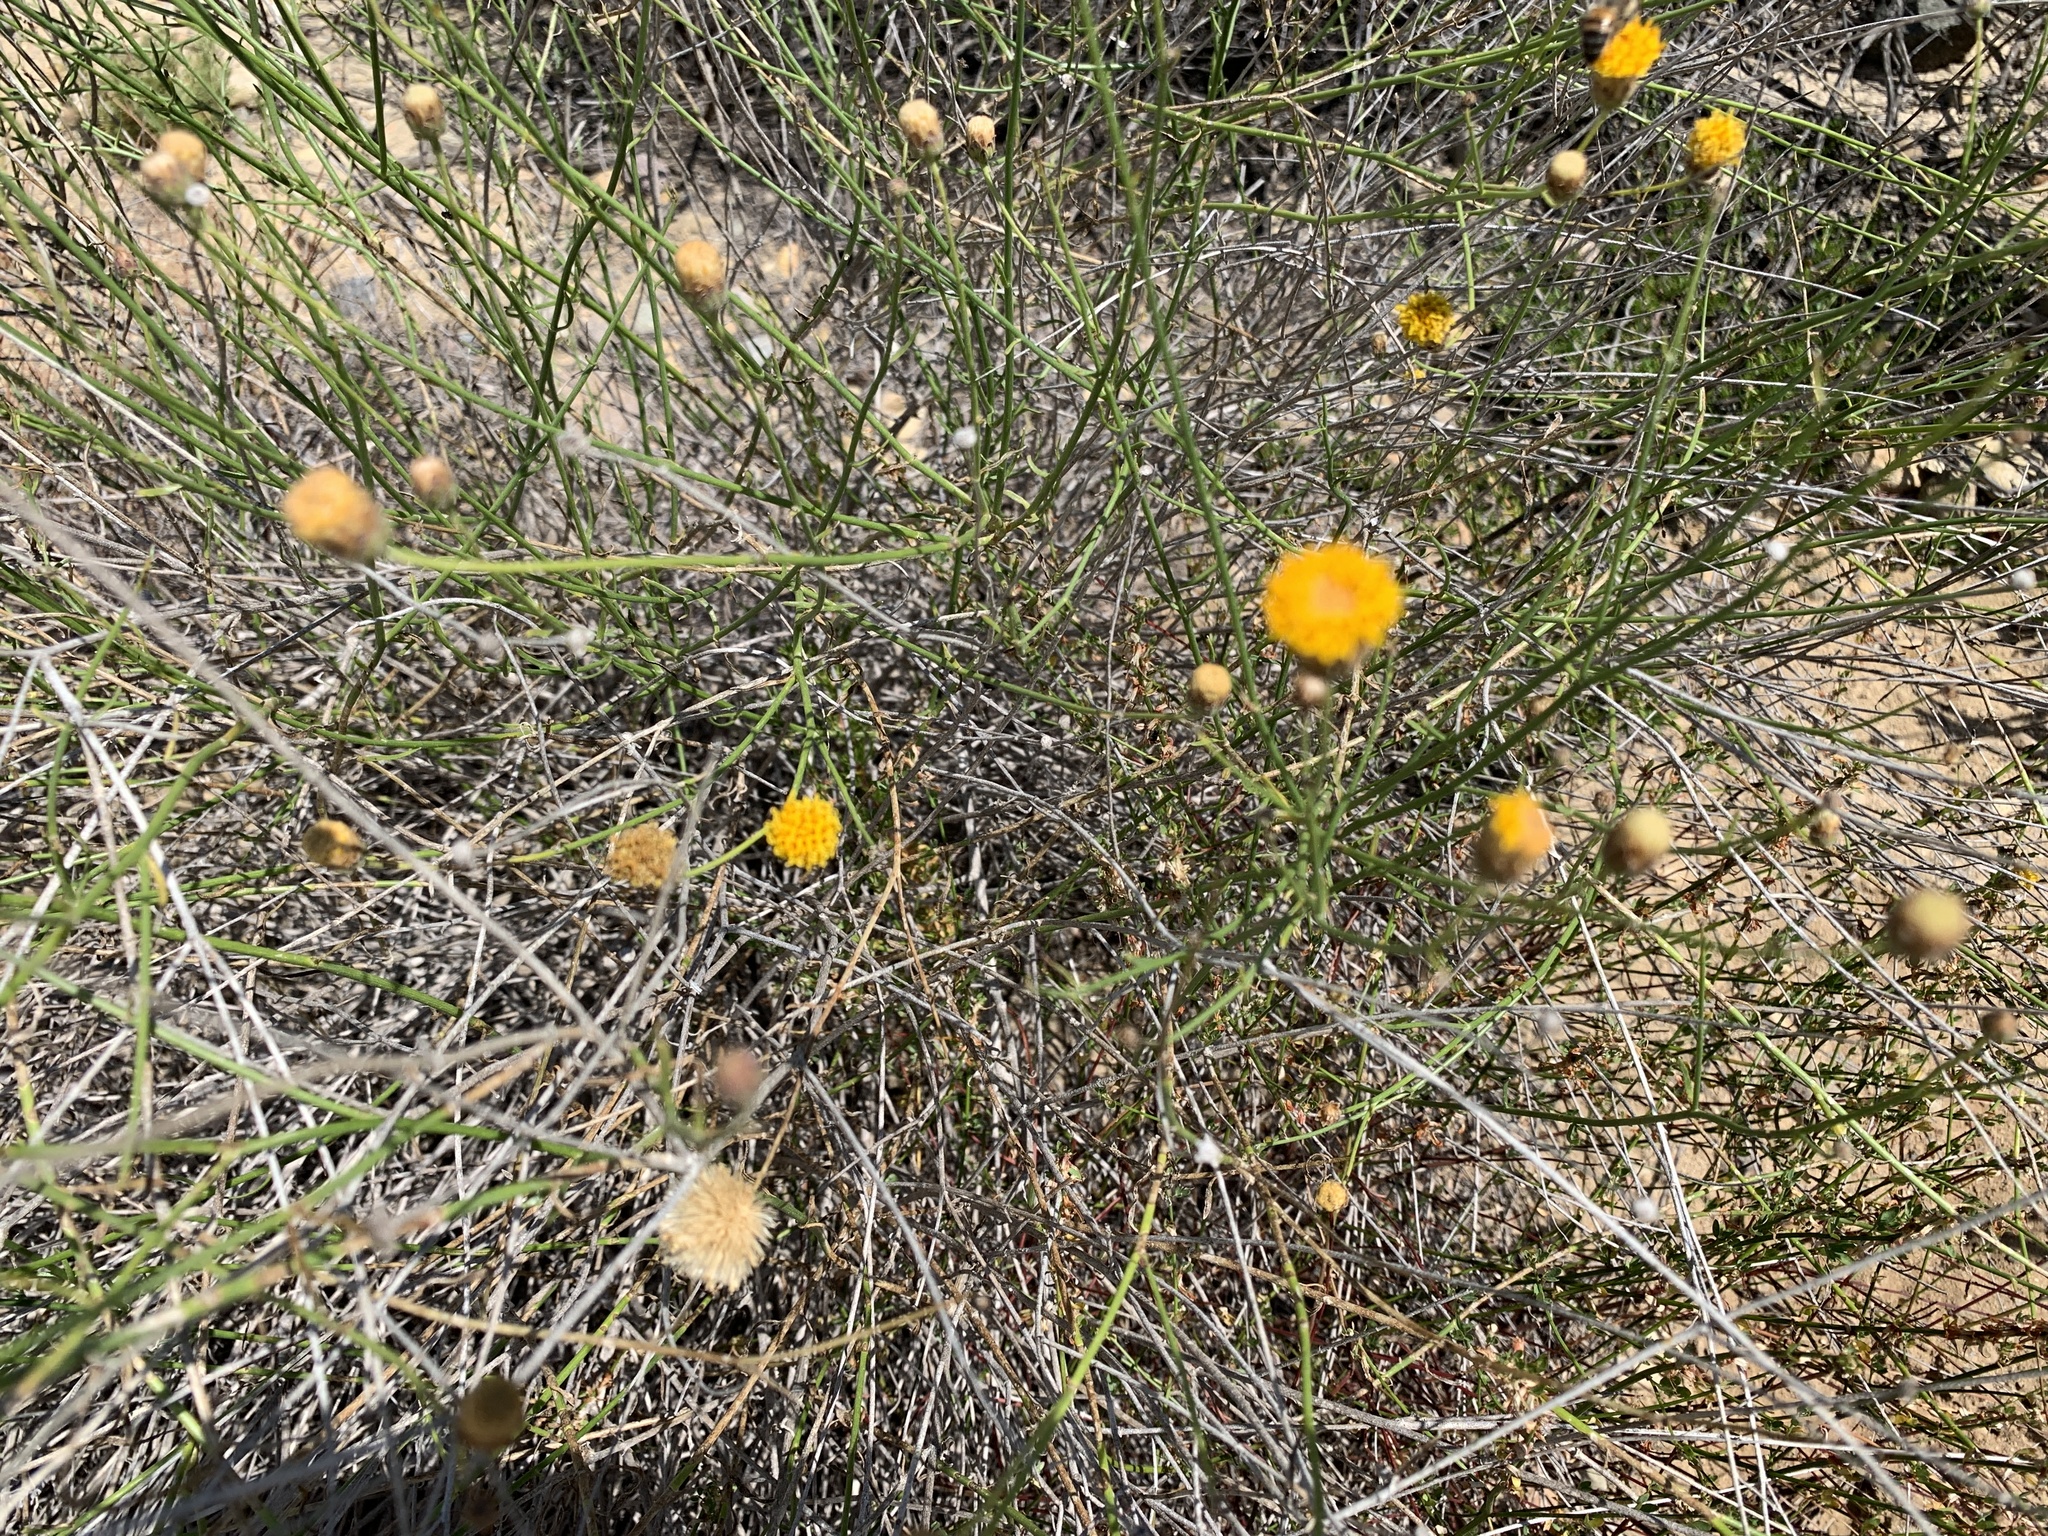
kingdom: Plantae
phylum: Tracheophyta
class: Magnoliopsida
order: Asterales
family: Asteraceae
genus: Bebbia
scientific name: Bebbia juncea
